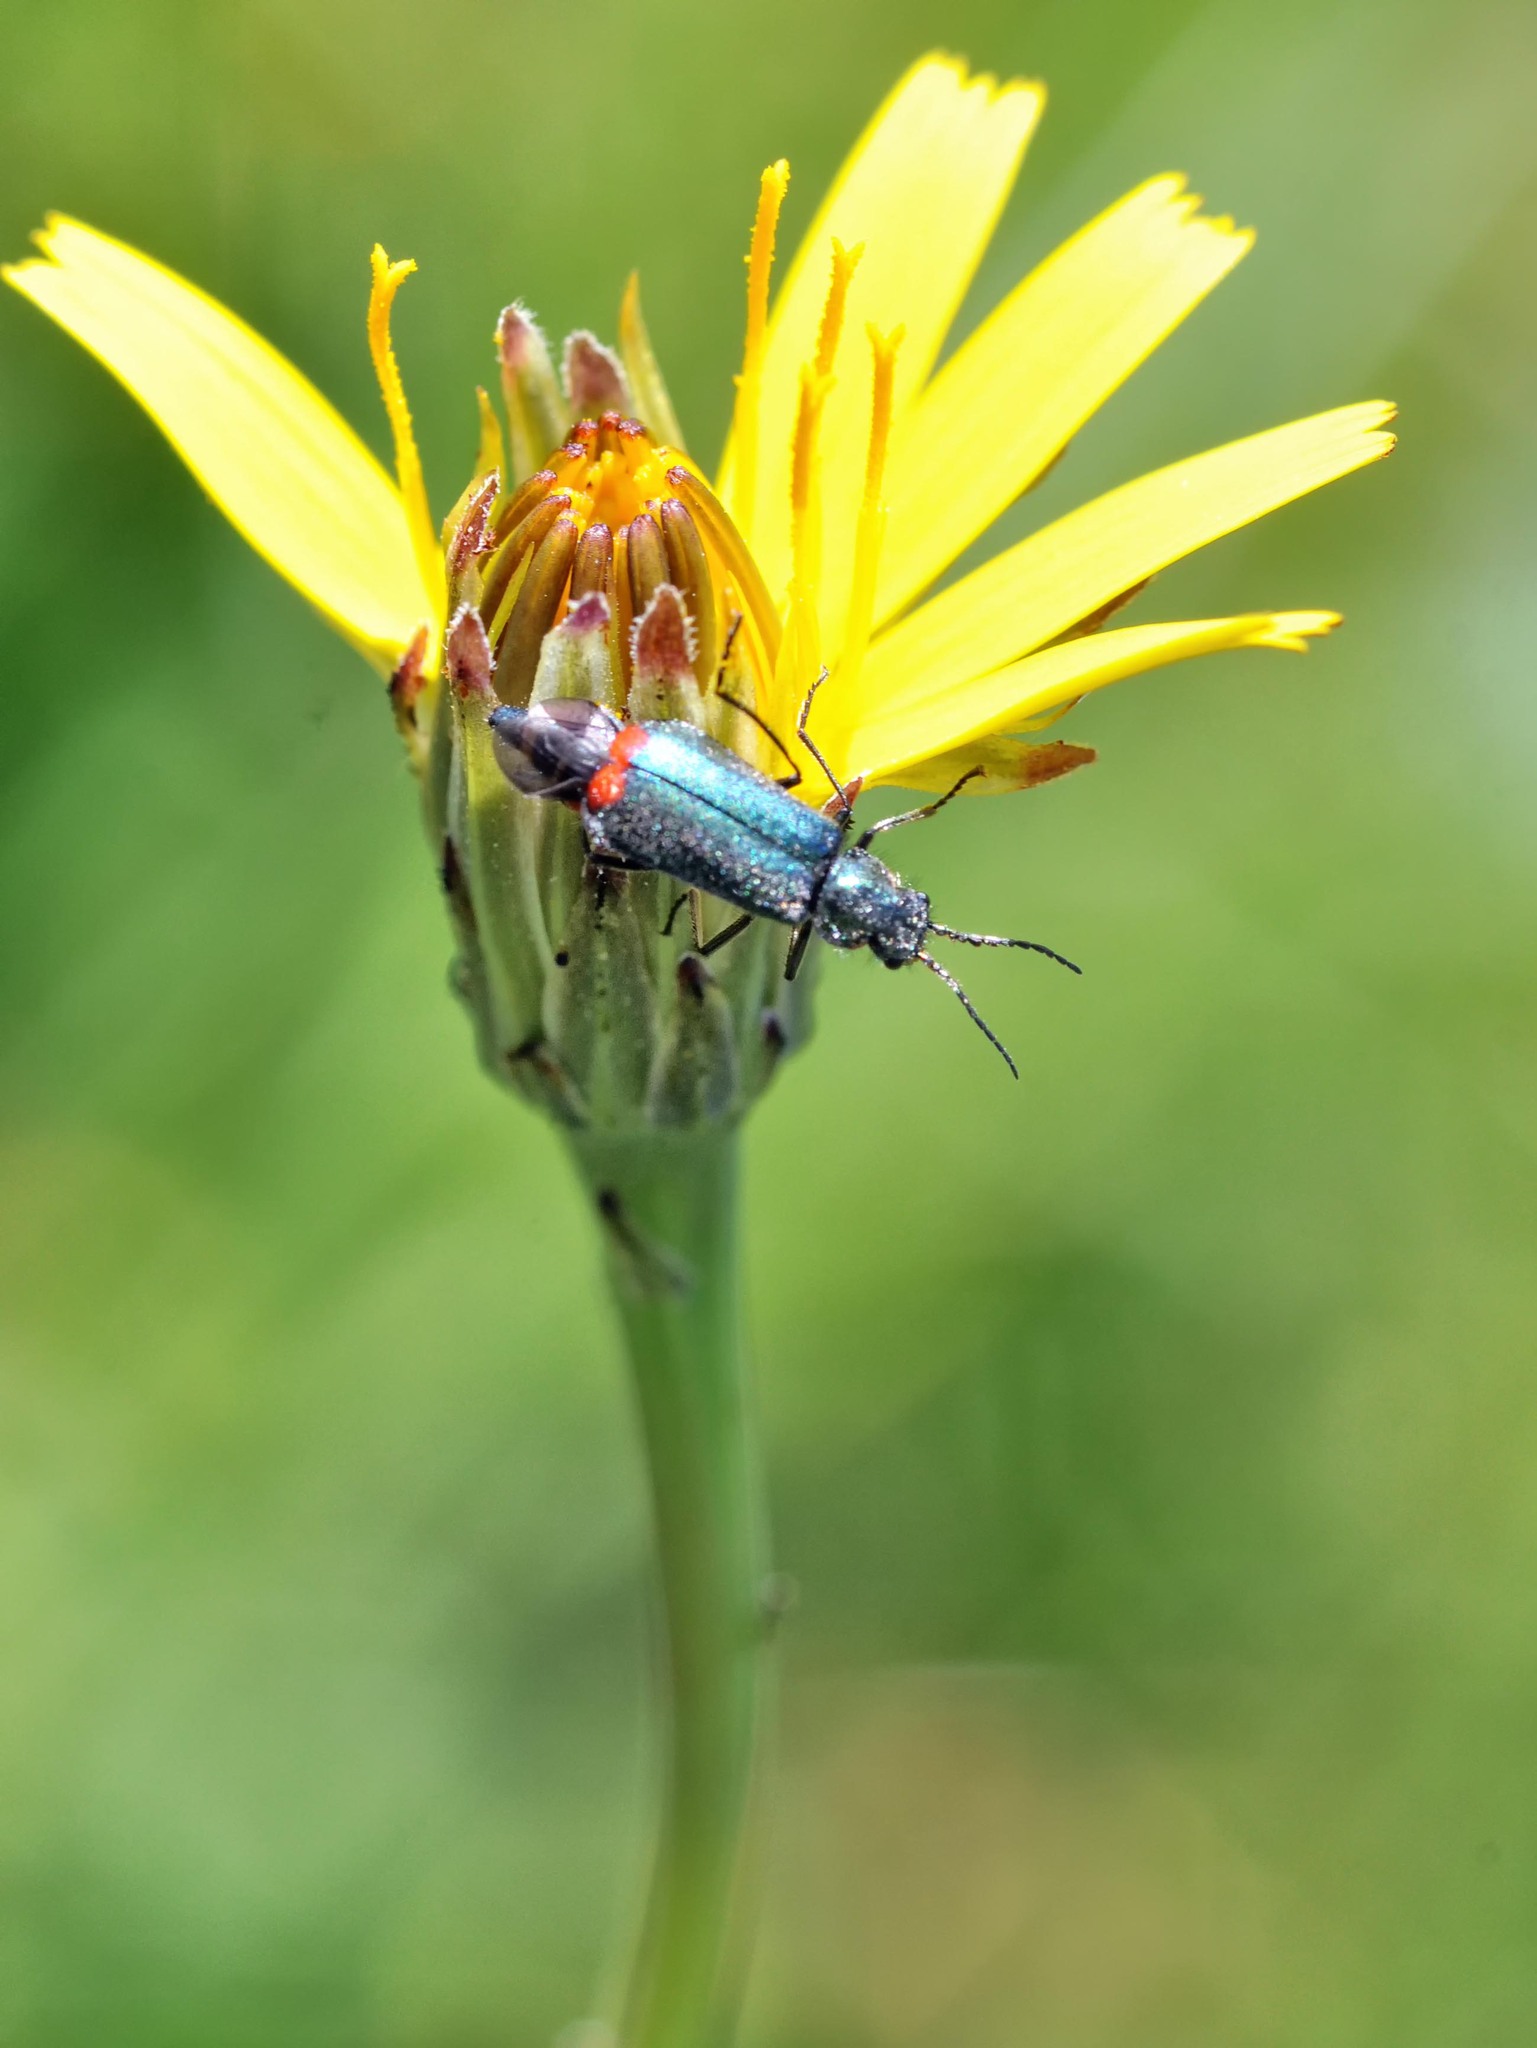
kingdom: Animalia
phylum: Arthropoda
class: Insecta
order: Coleoptera
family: Melyridae
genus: Malachius
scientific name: Malachius bipustulatus
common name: Malachite beetle
